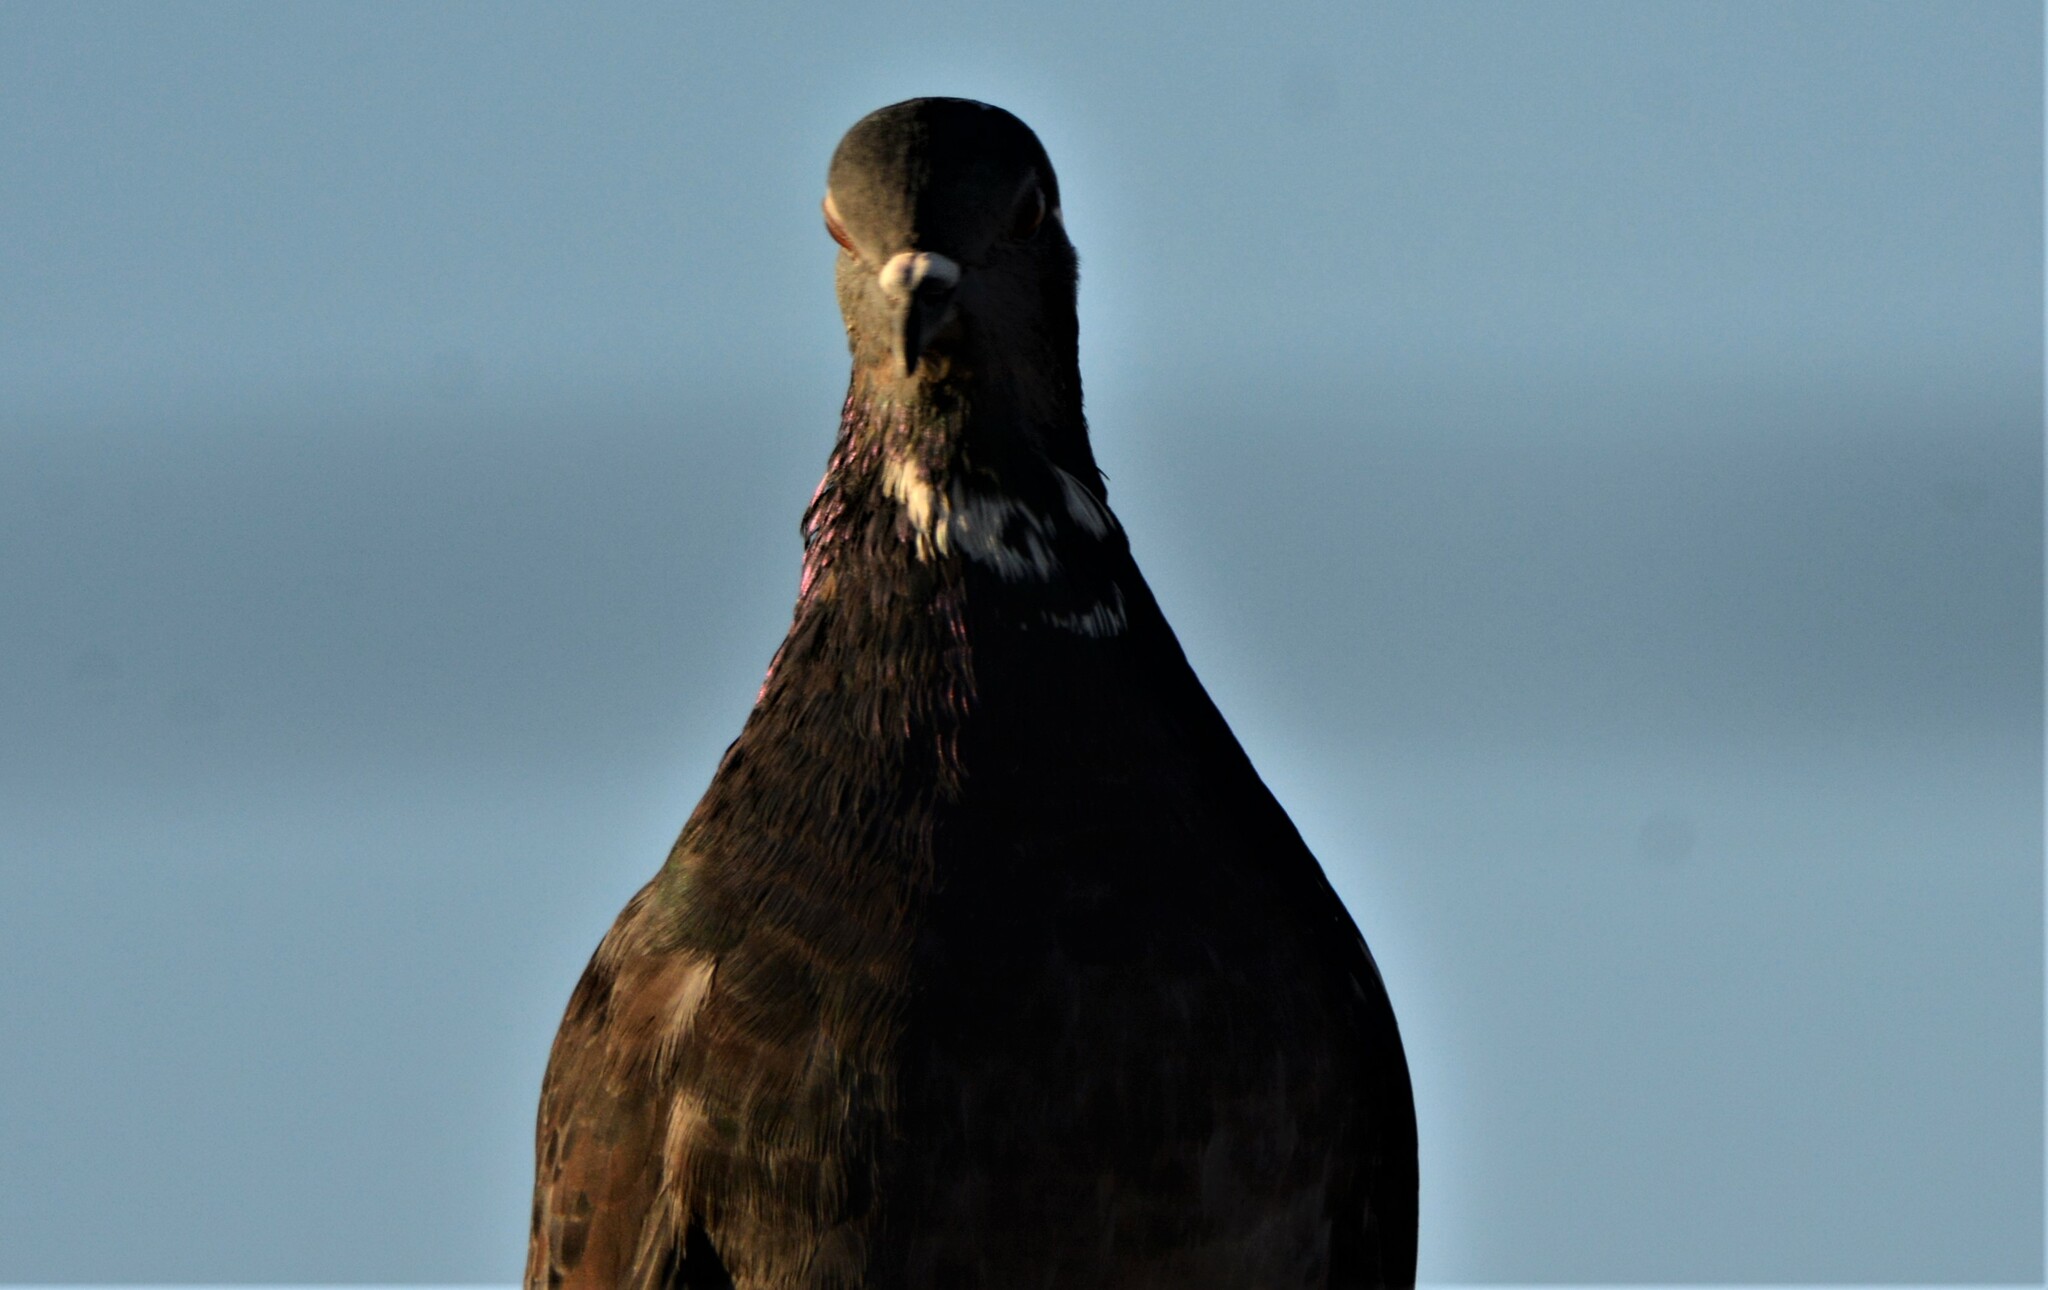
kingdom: Animalia
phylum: Chordata
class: Aves
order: Columbiformes
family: Columbidae
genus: Columba
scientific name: Columba livia
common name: Rock pigeon
